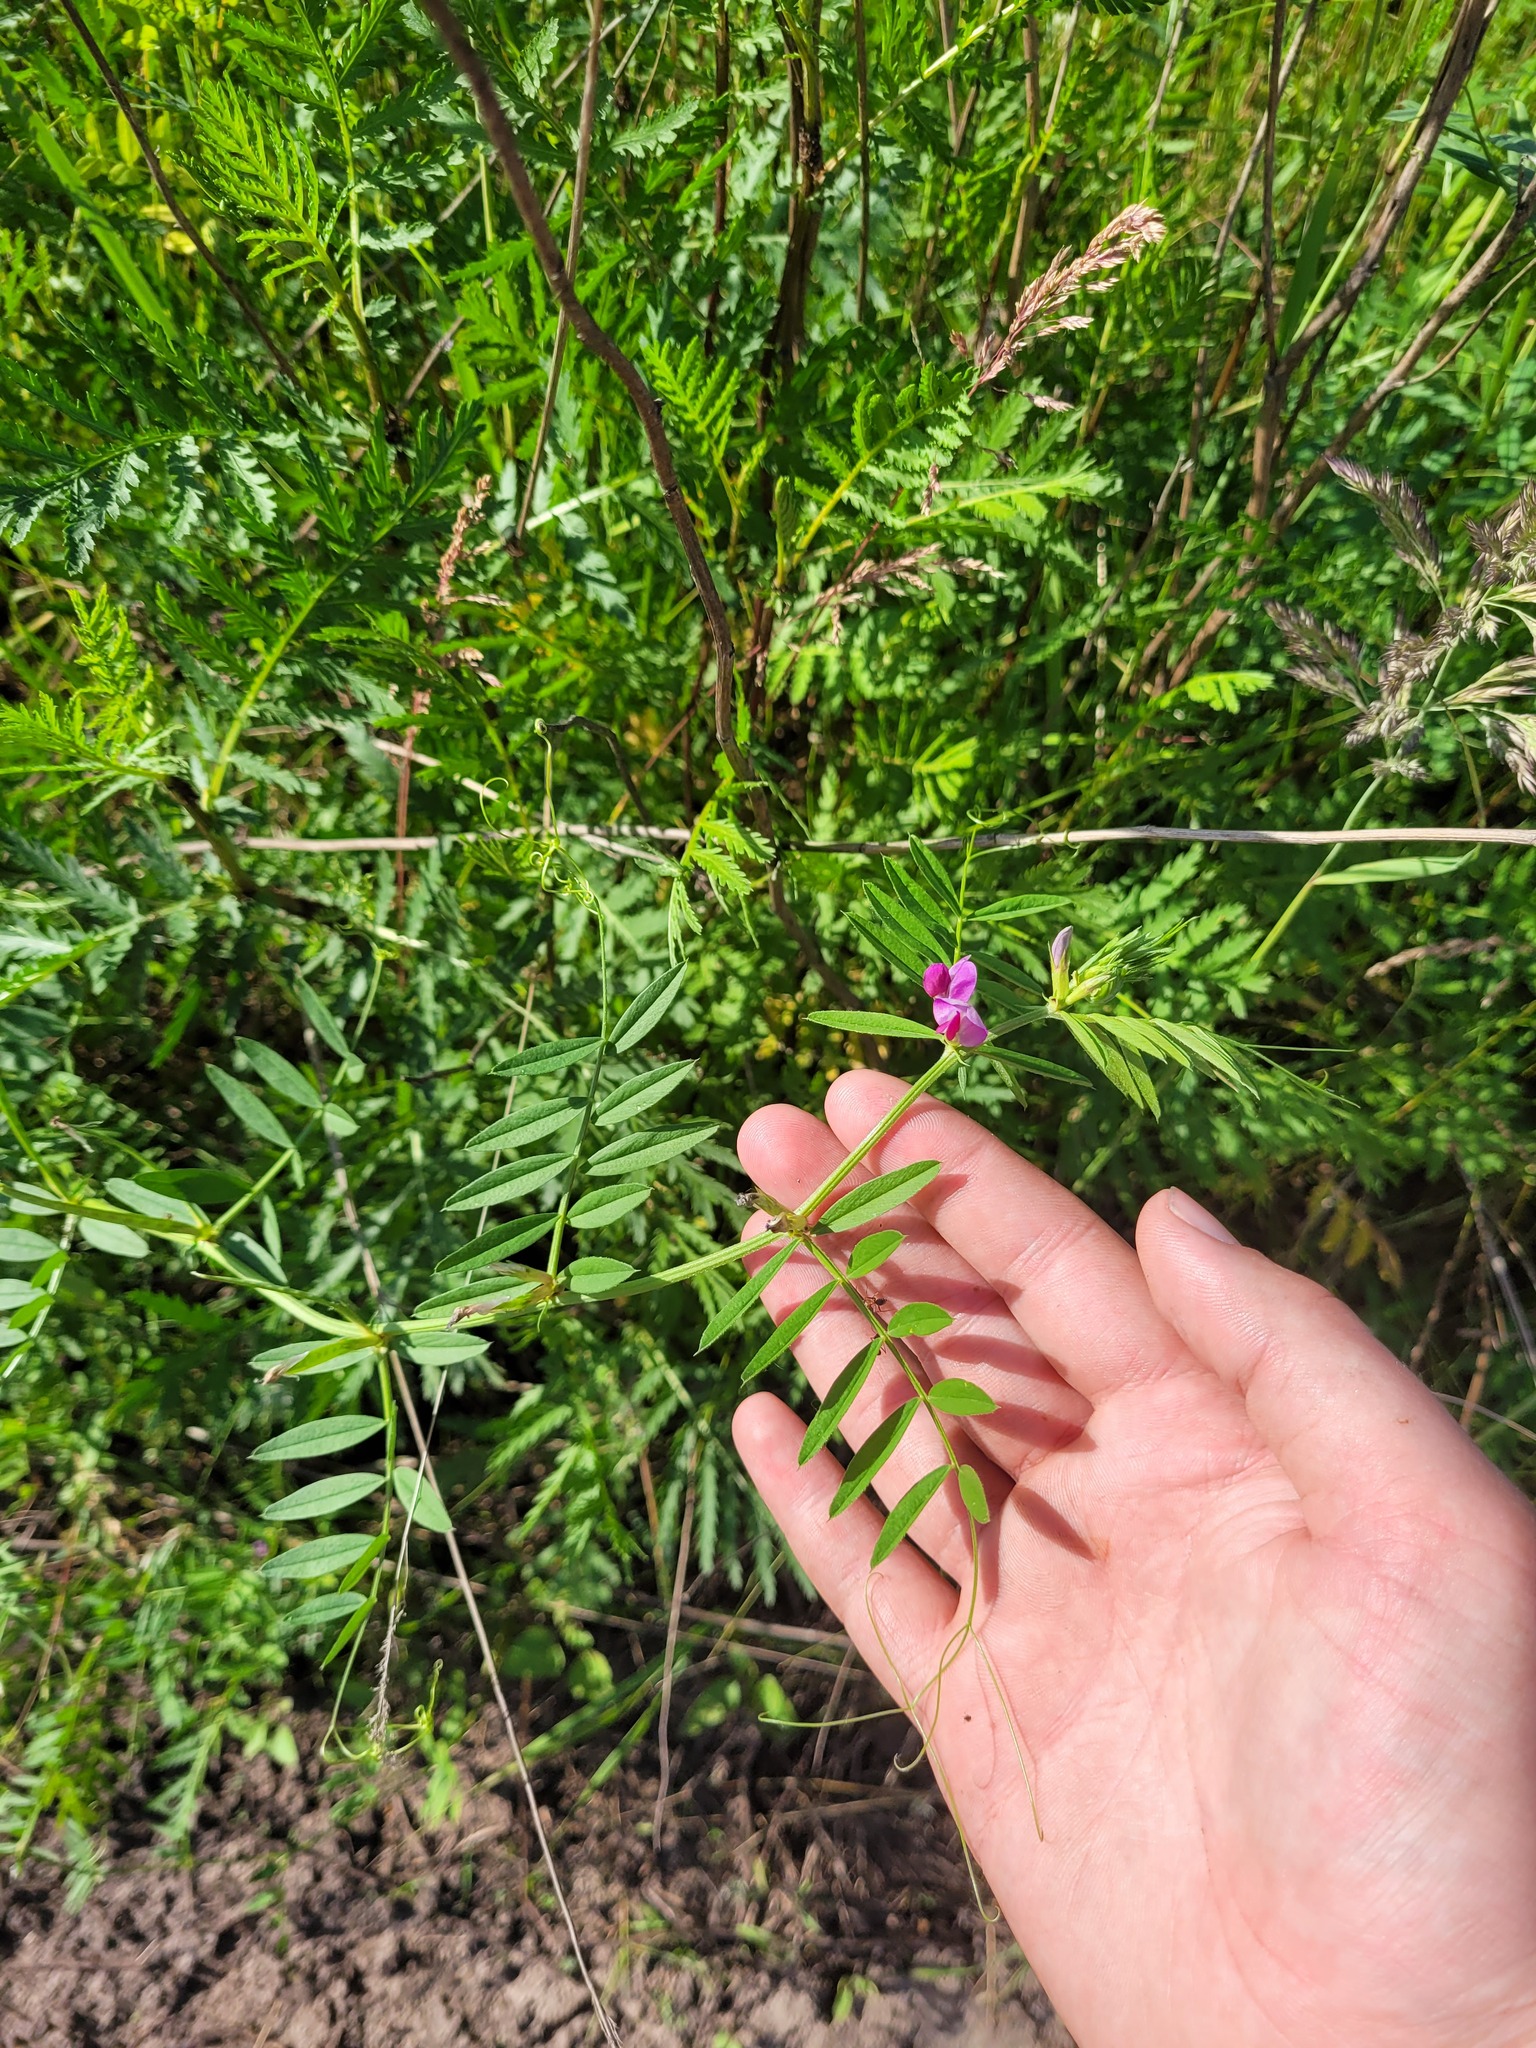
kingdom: Plantae
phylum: Tracheophyta
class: Magnoliopsida
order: Fabales
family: Fabaceae
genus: Vicia
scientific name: Vicia sativa
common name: Garden vetch
